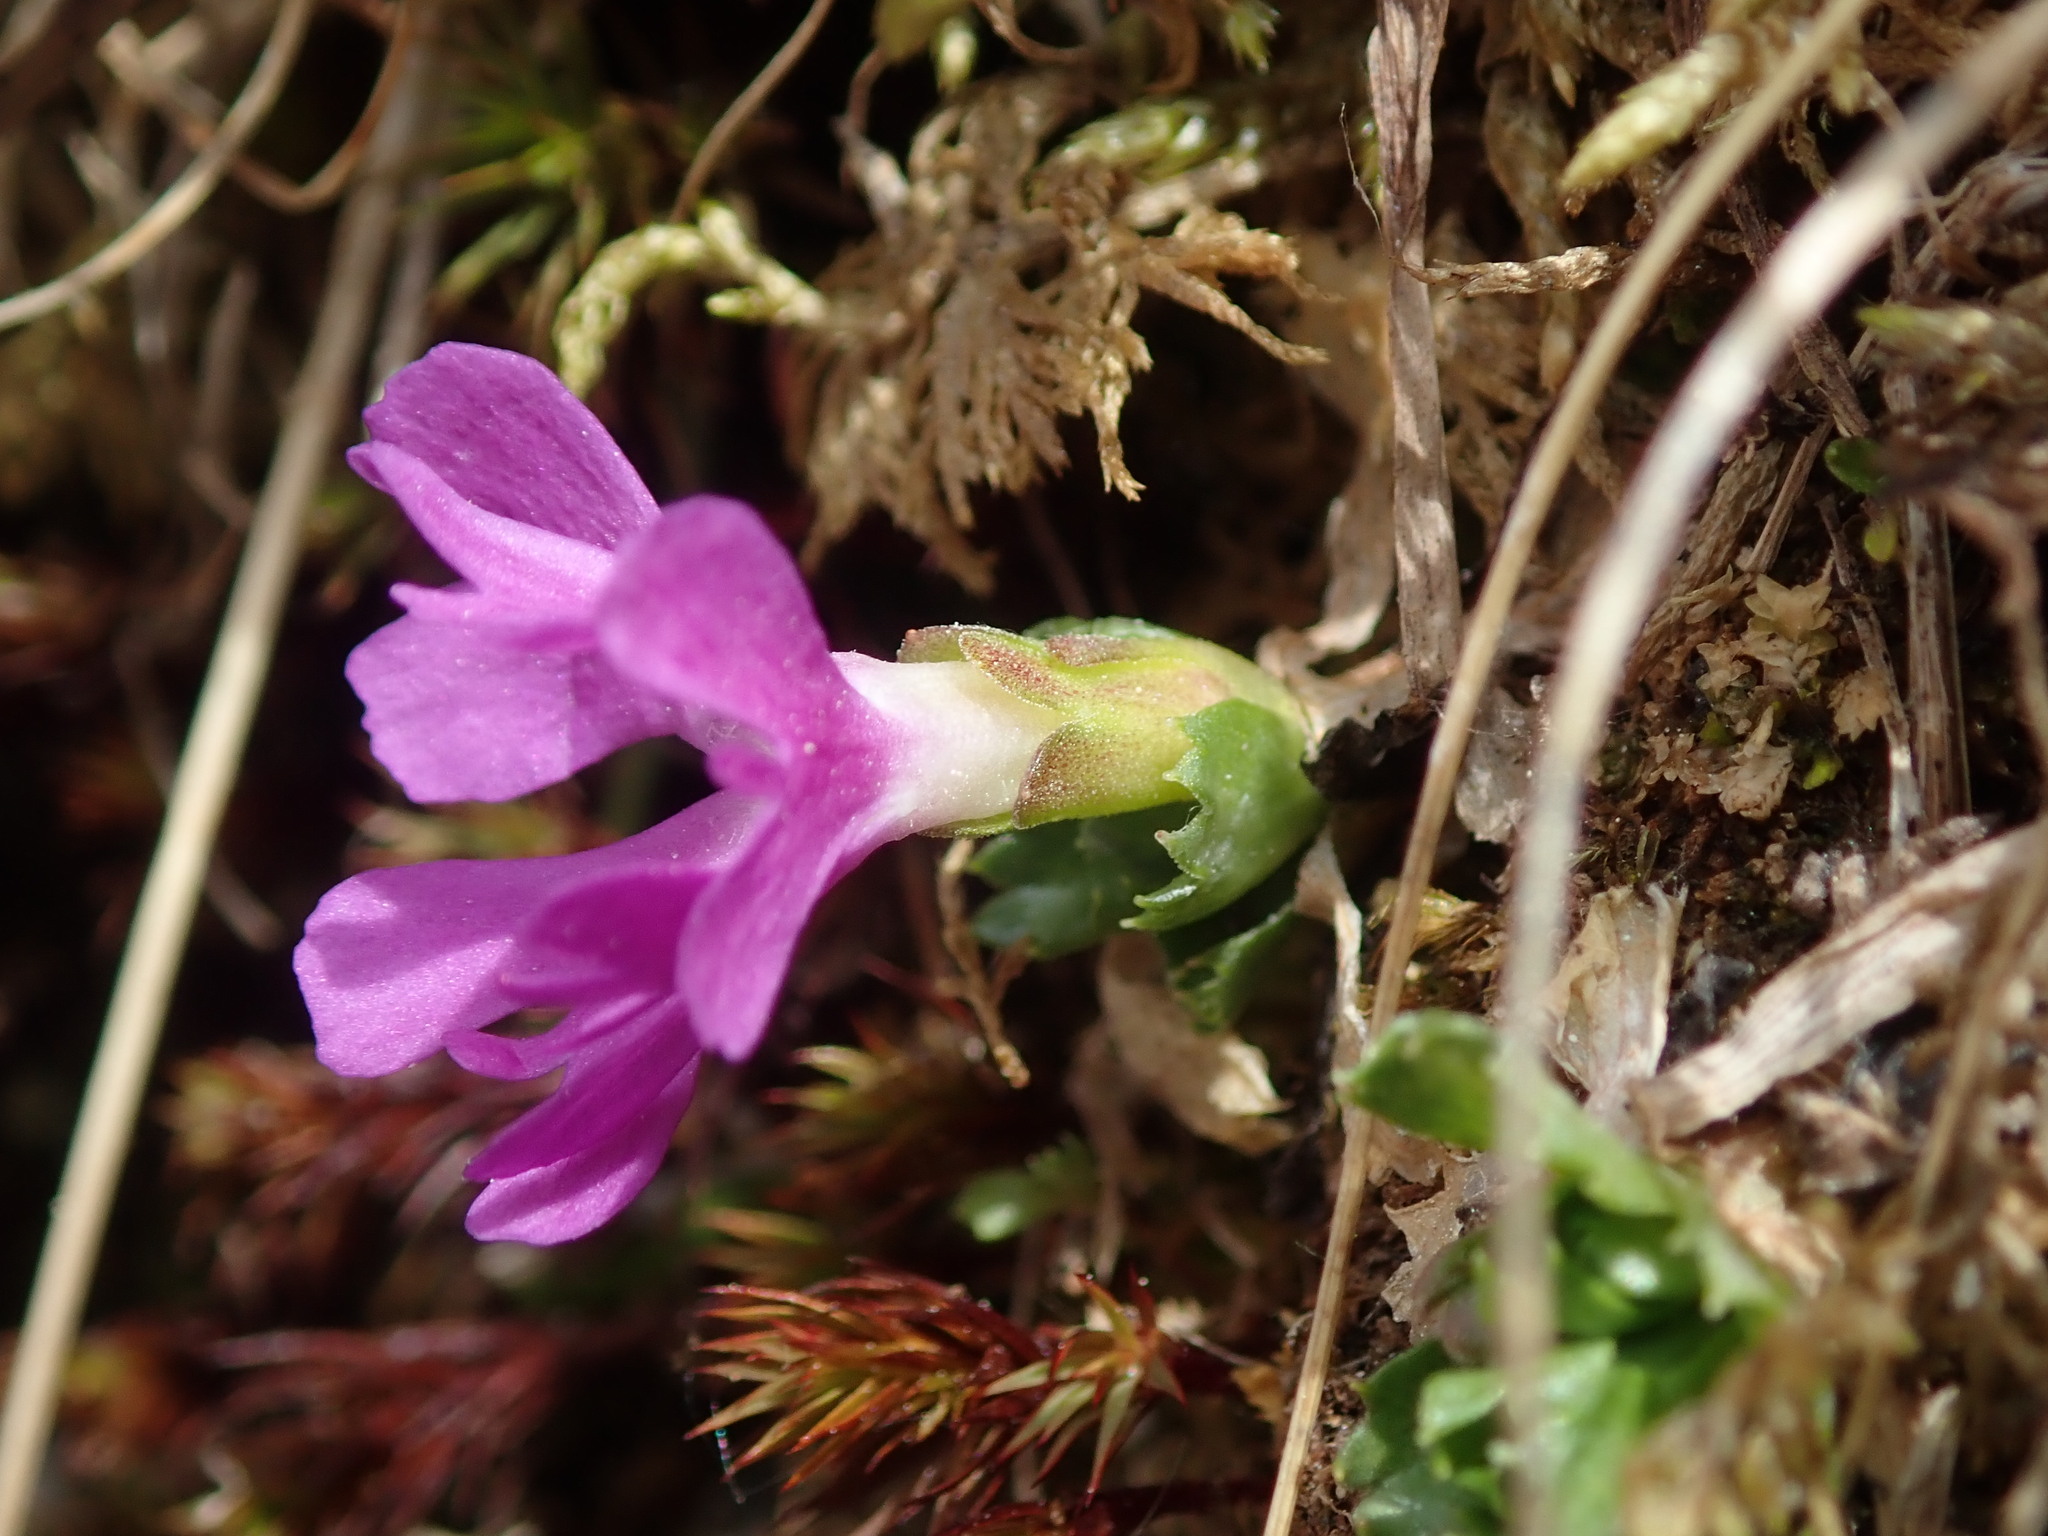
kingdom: Plantae
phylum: Tracheophyta
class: Magnoliopsida
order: Ericales
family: Primulaceae
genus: Primula
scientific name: Primula minima
